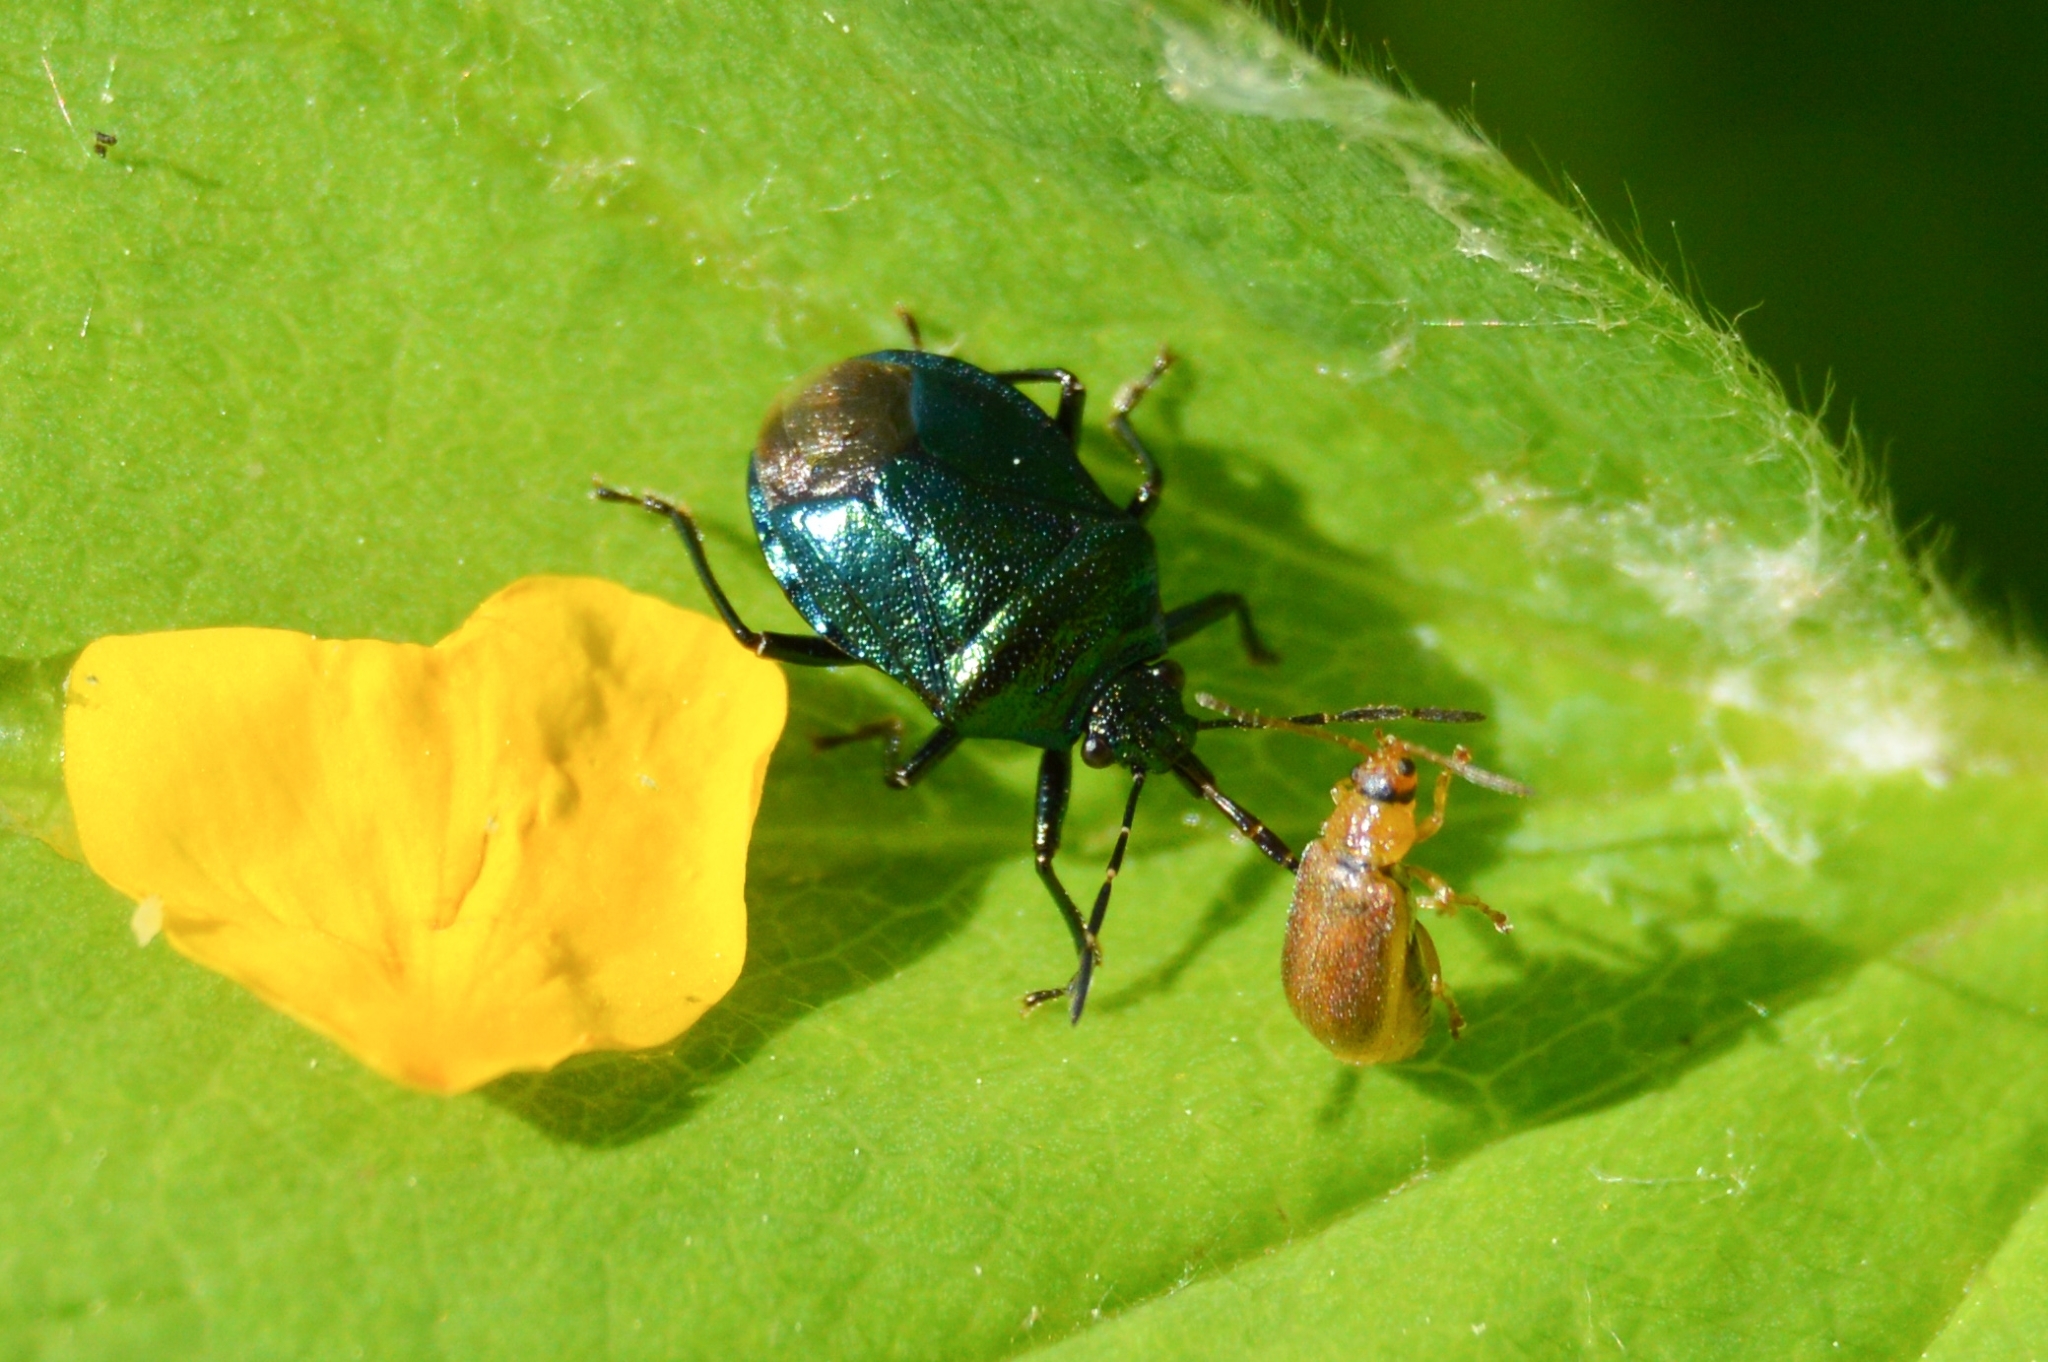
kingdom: Animalia
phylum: Arthropoda
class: Insecta
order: Hemiptera
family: Pentatomidae
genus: Zicrona
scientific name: Zicrona caerulea
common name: Blue shieldbug
